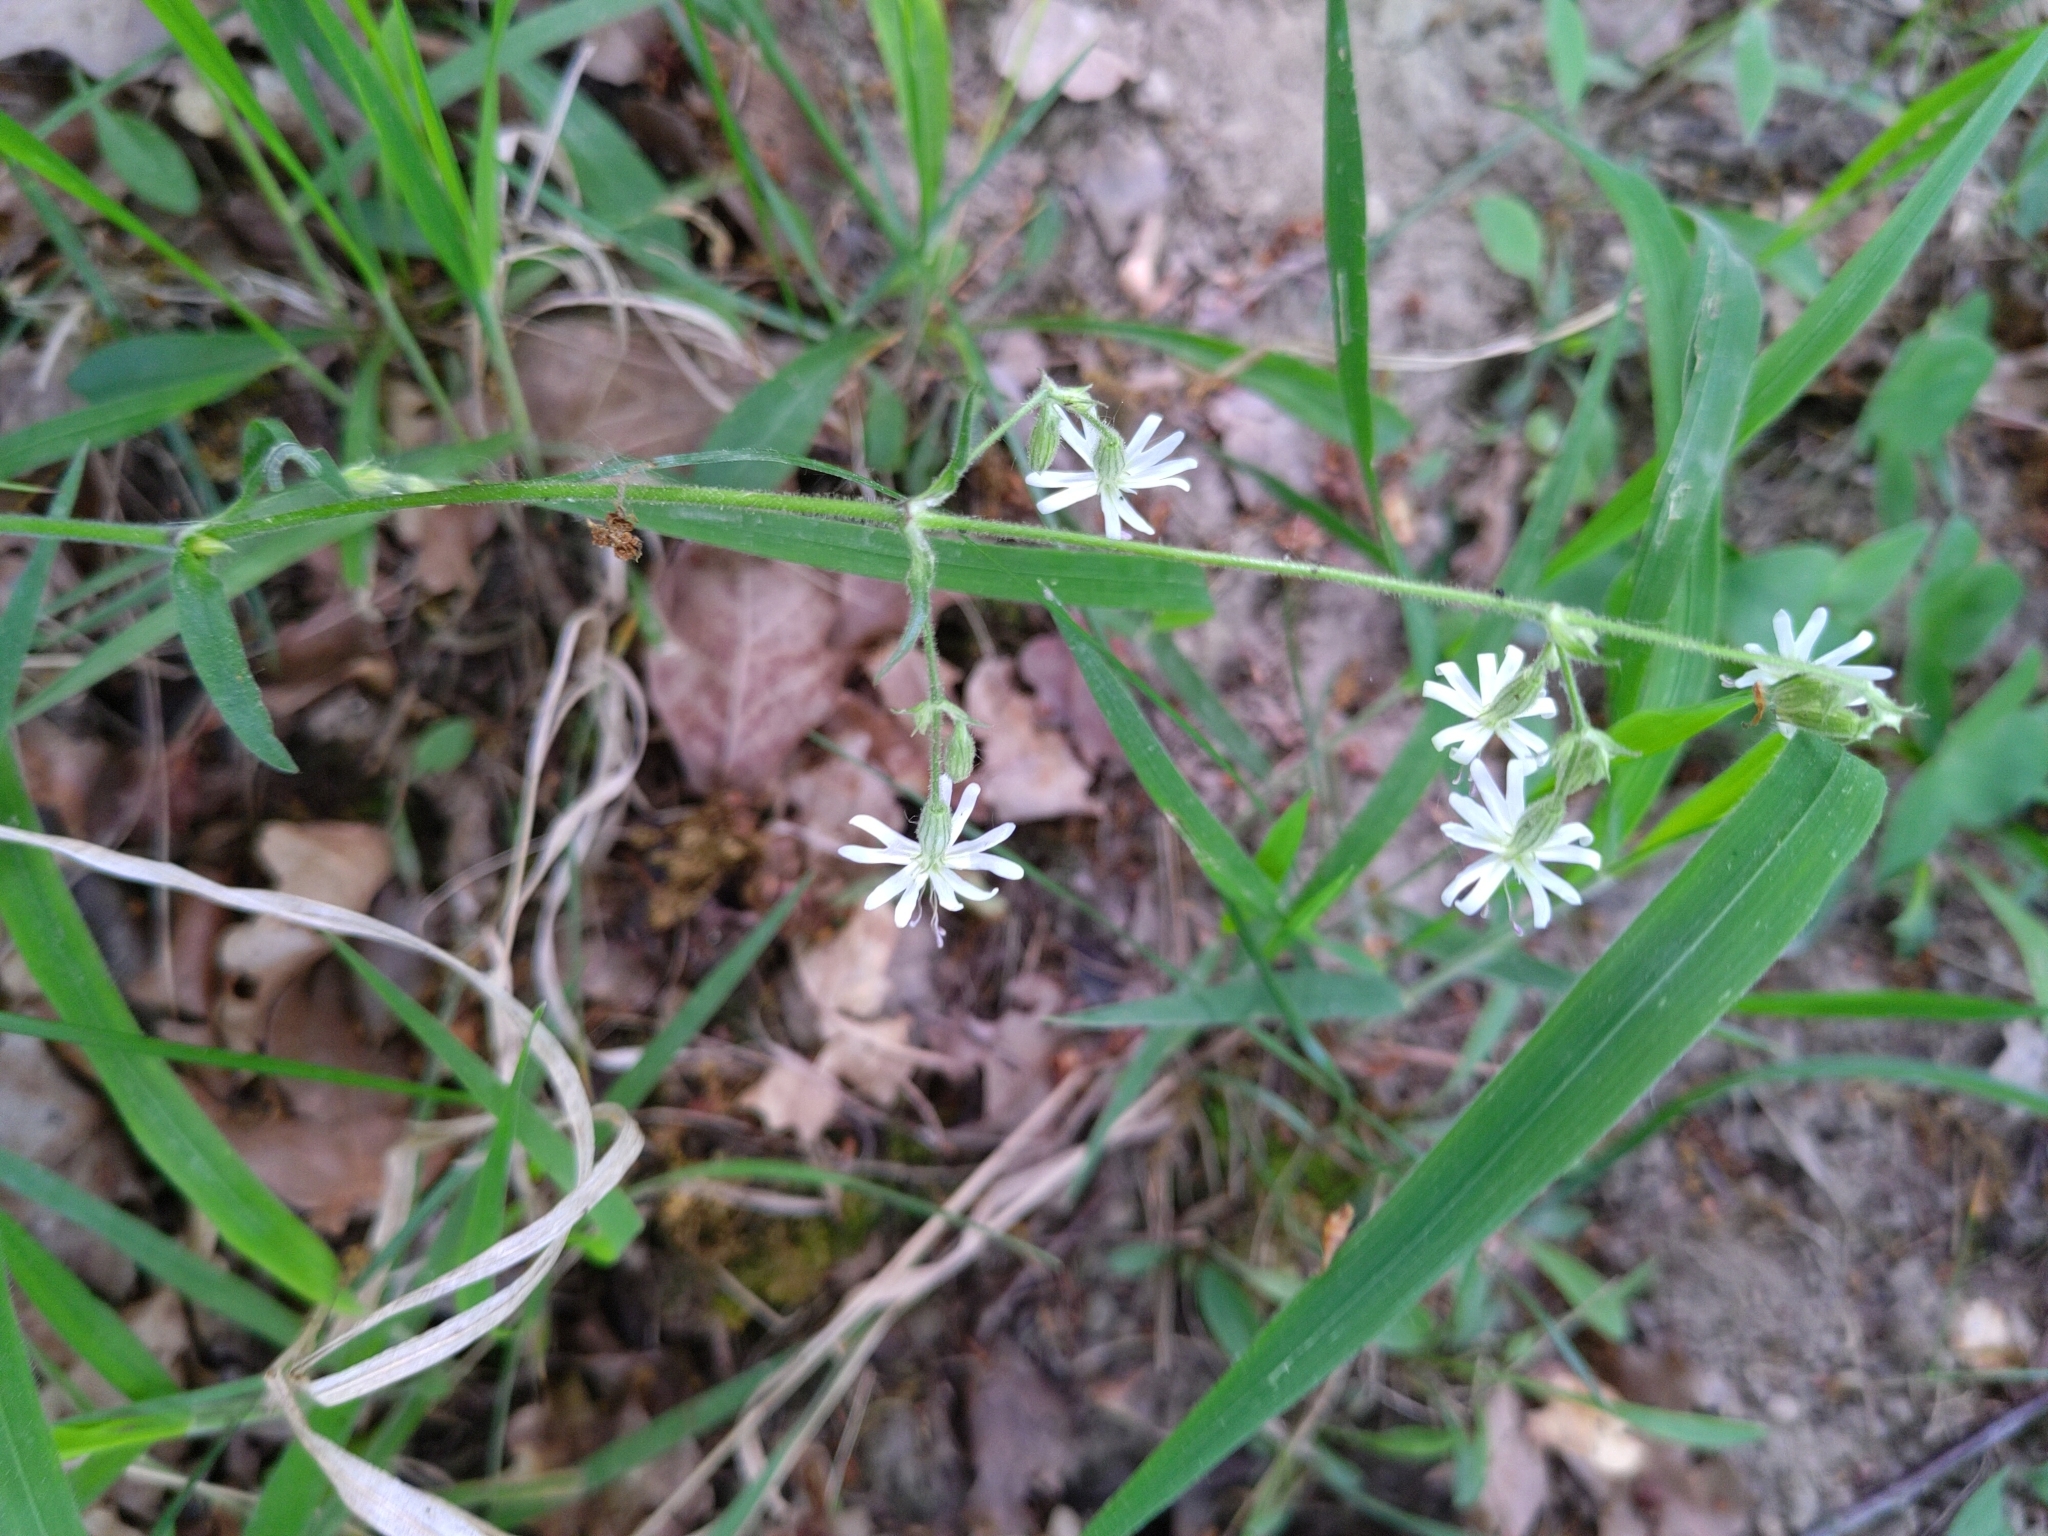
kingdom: Plantae
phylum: Tracheophyta
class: Magnoliopsida
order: Caryophyllales
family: Caryophyllaceae
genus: Silene
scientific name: Silene nutans
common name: Nottingham catchfly
